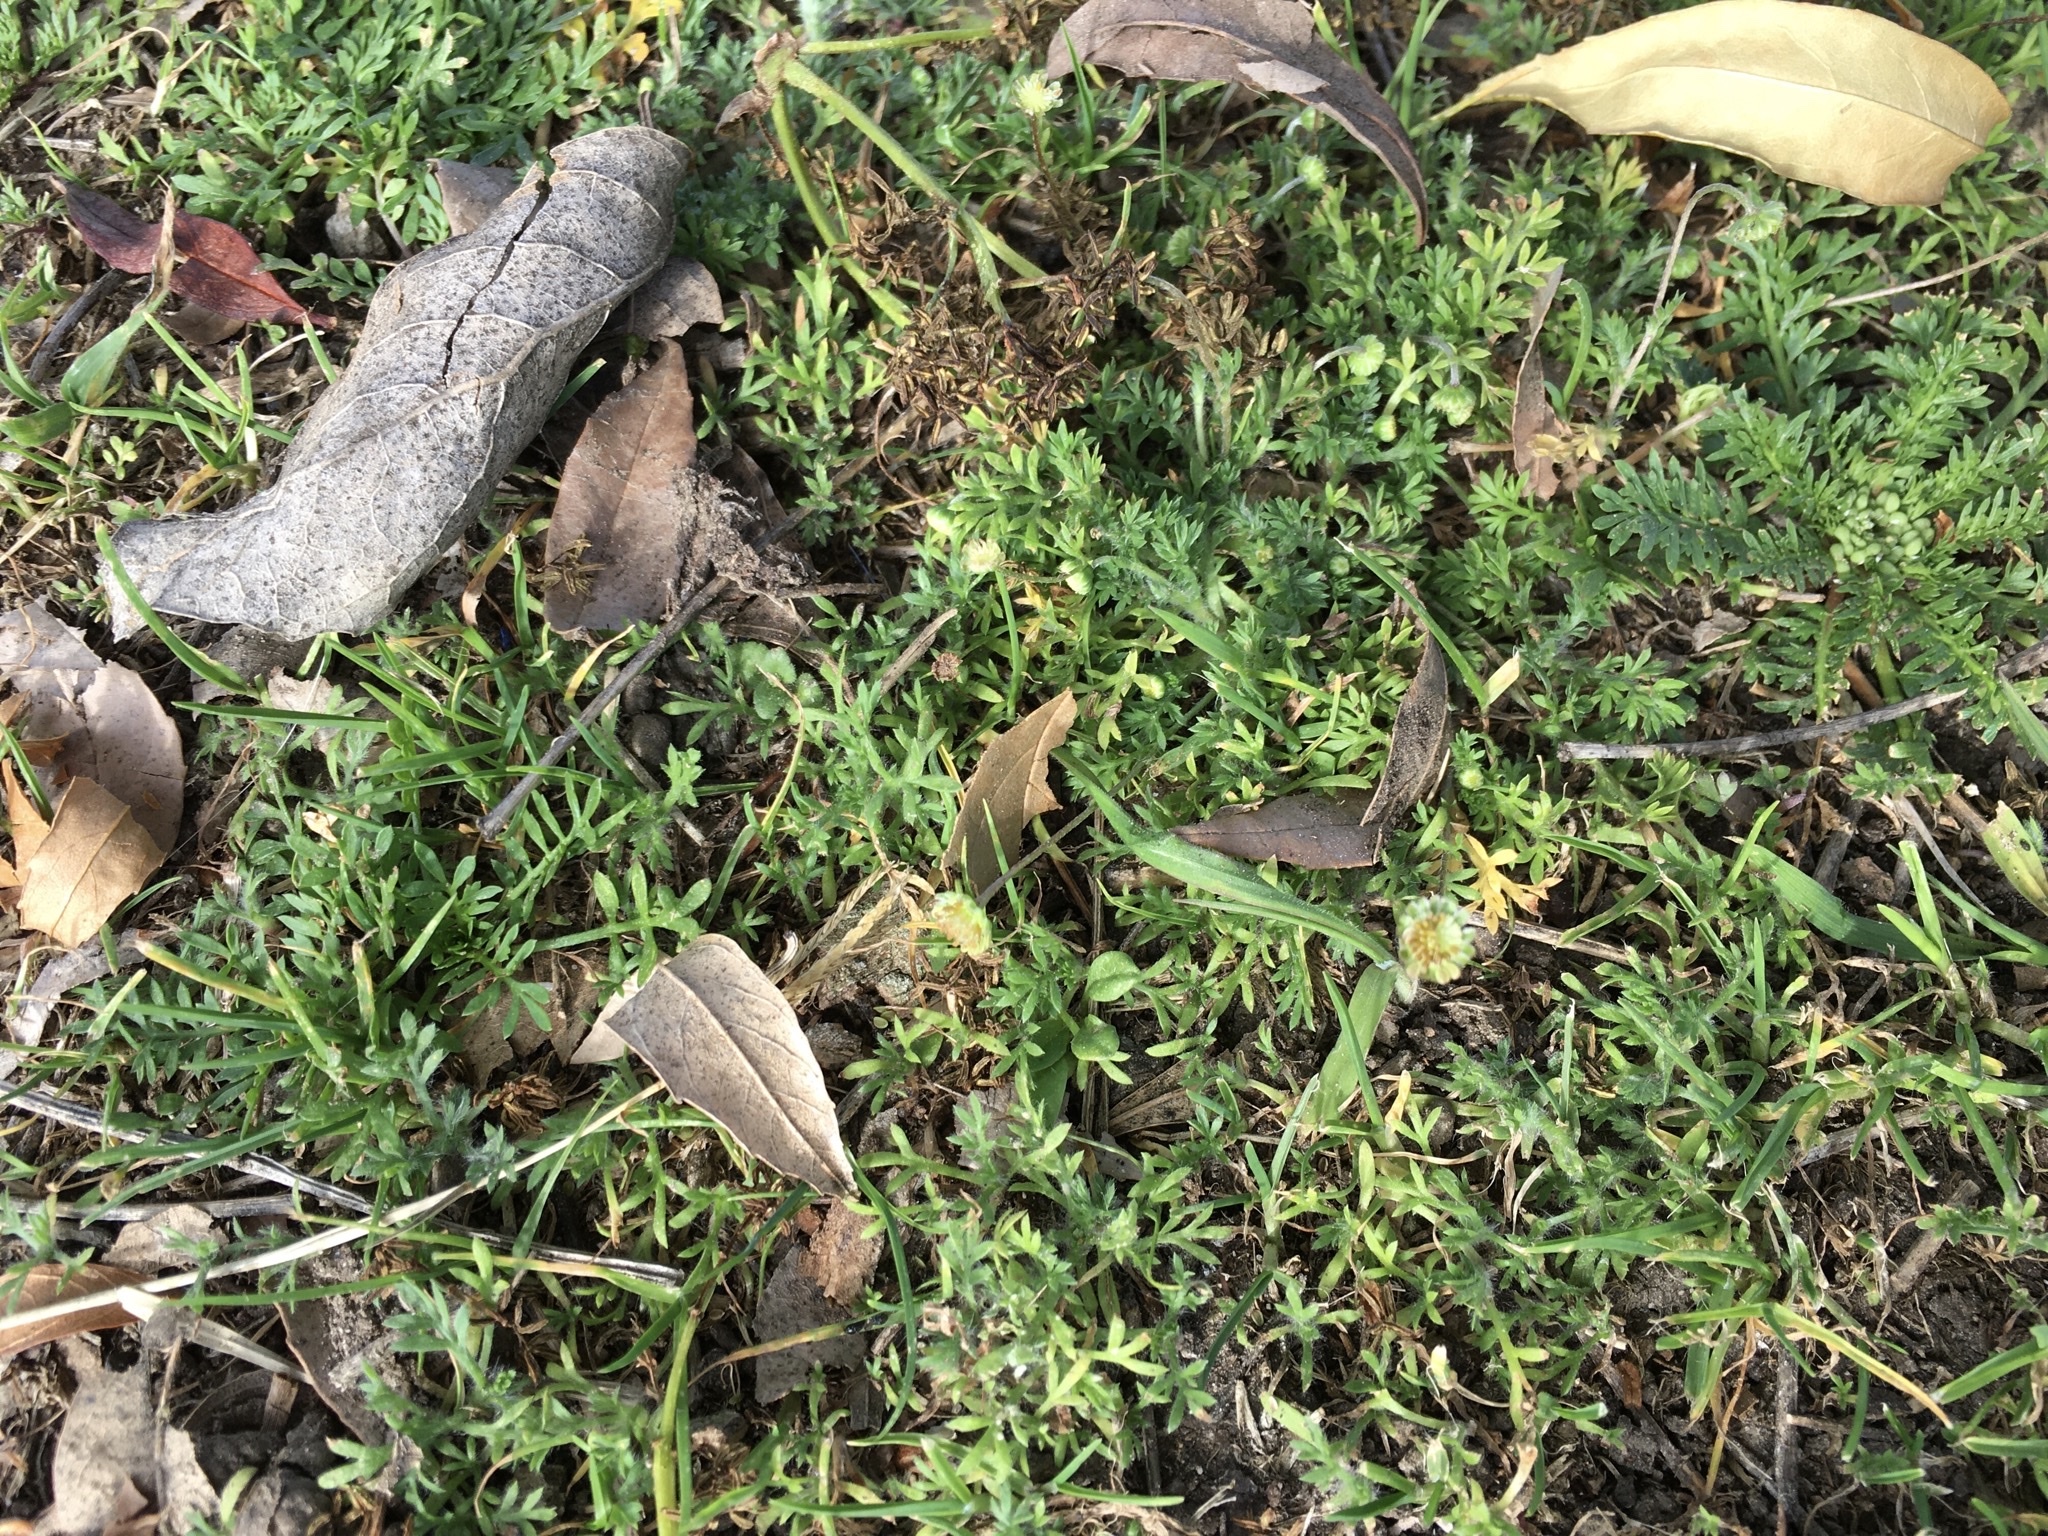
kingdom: Plantae
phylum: Tracheophyta
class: Magnoliopsida
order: Asterales
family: Asteraceae
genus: Cotula
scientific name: Cotula australis
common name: Australian waterbuttons
